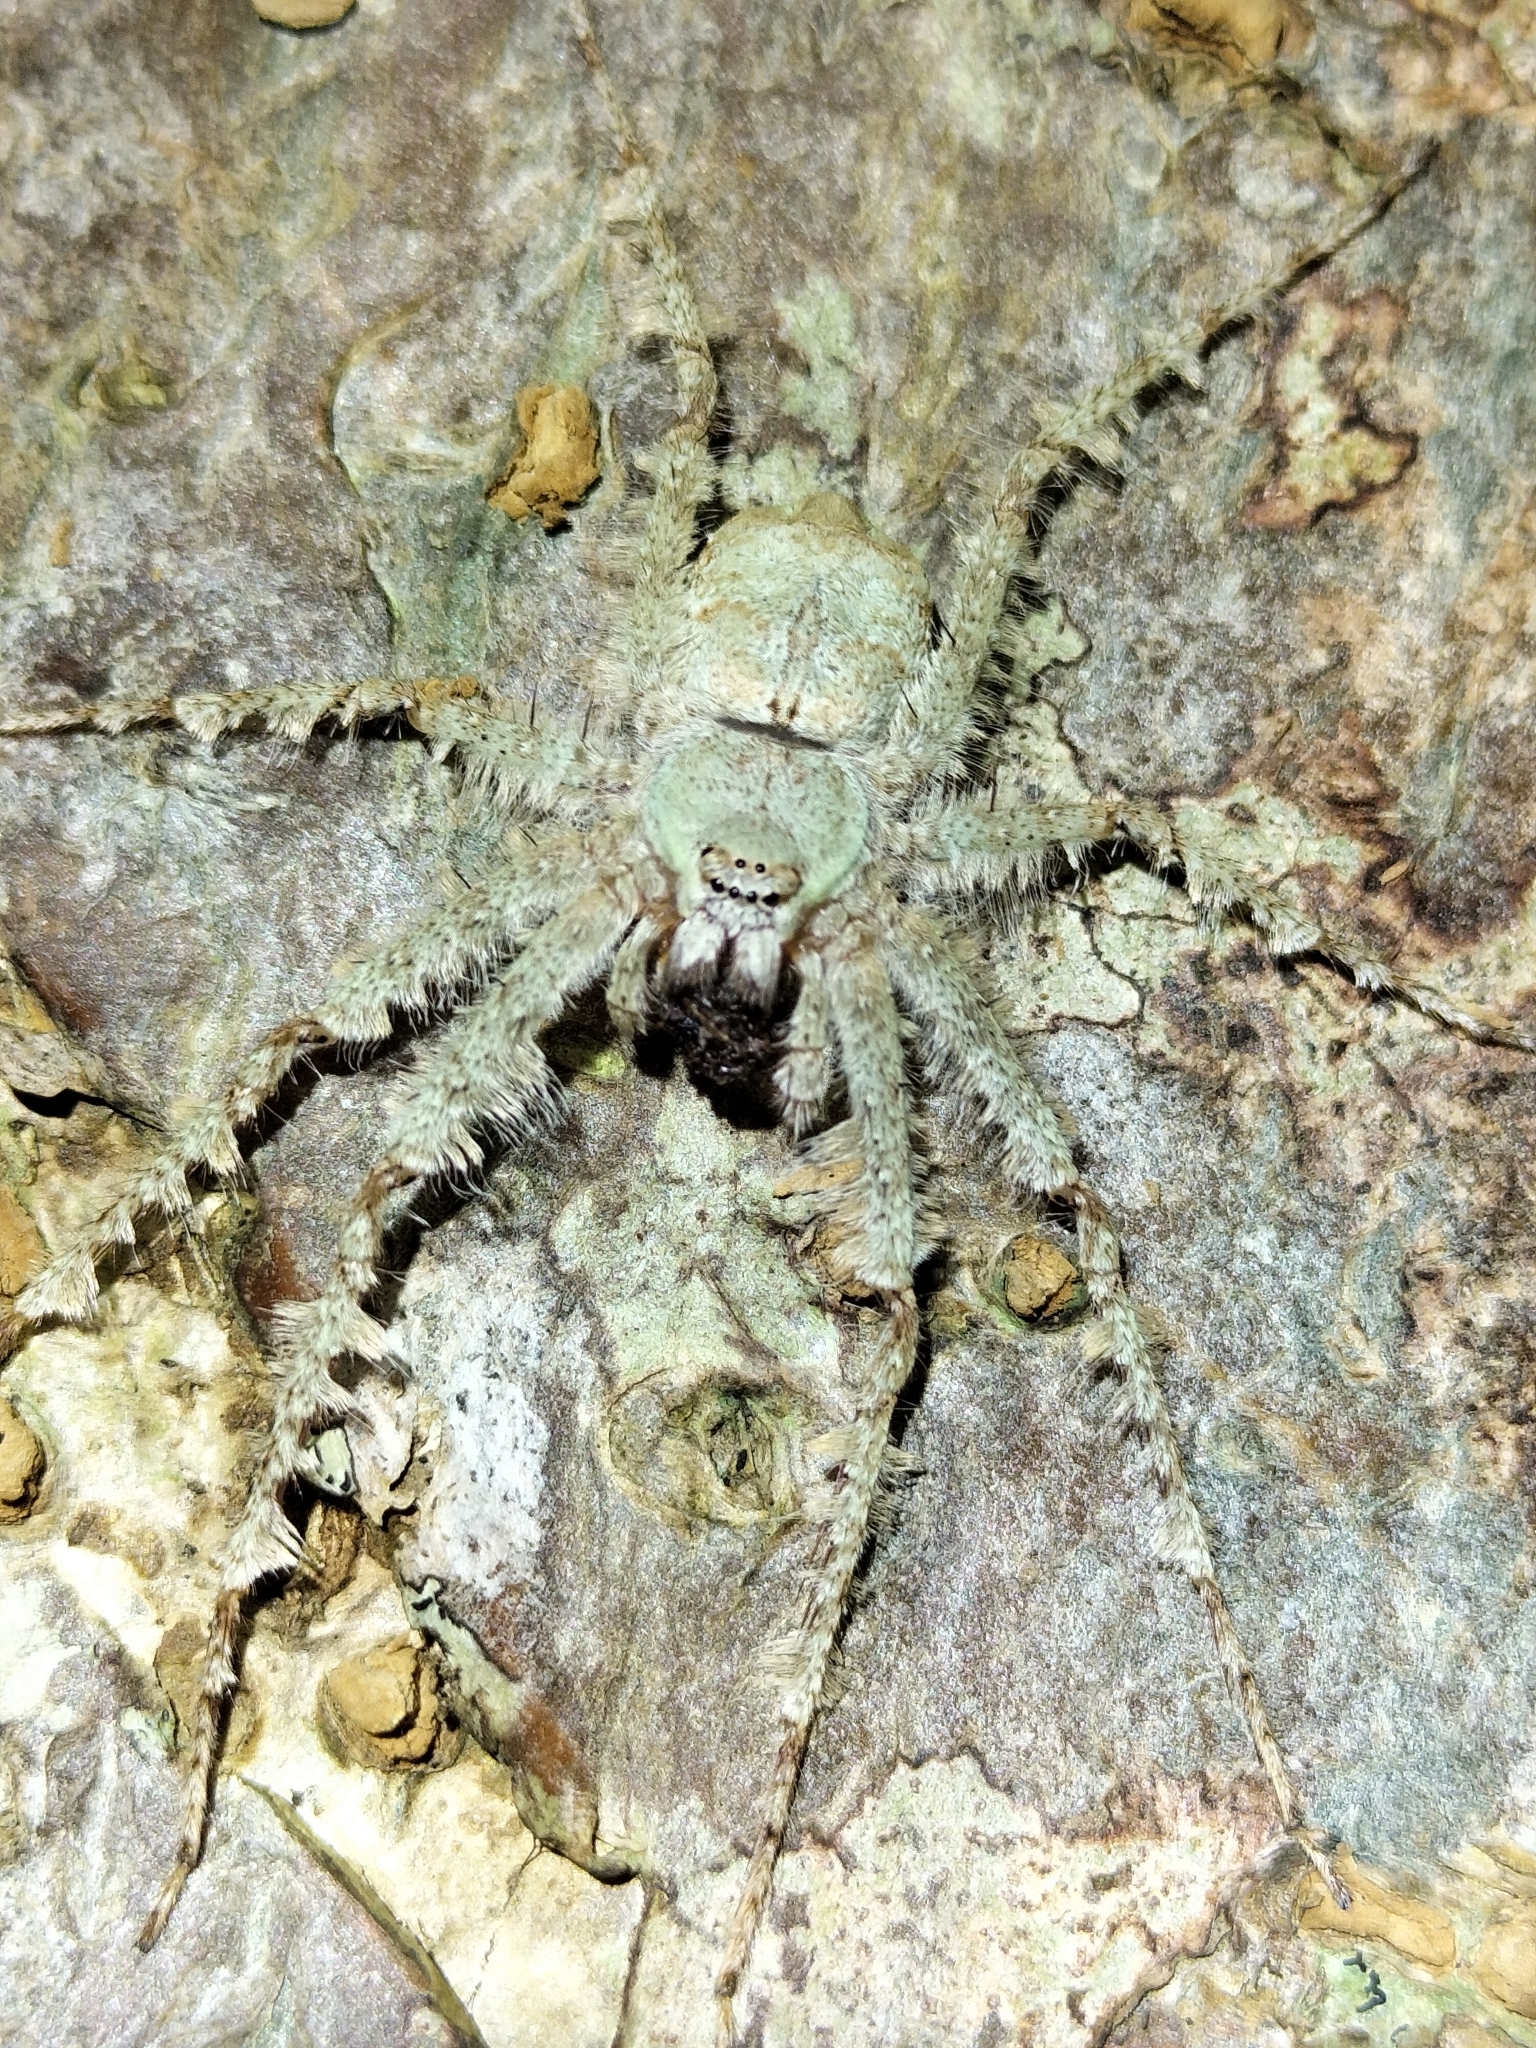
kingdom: Animalia
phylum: Arthropoda
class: Arachnida
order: Araneae
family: Sparassidae
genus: Pandercetes
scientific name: Pandercetes gracilis
